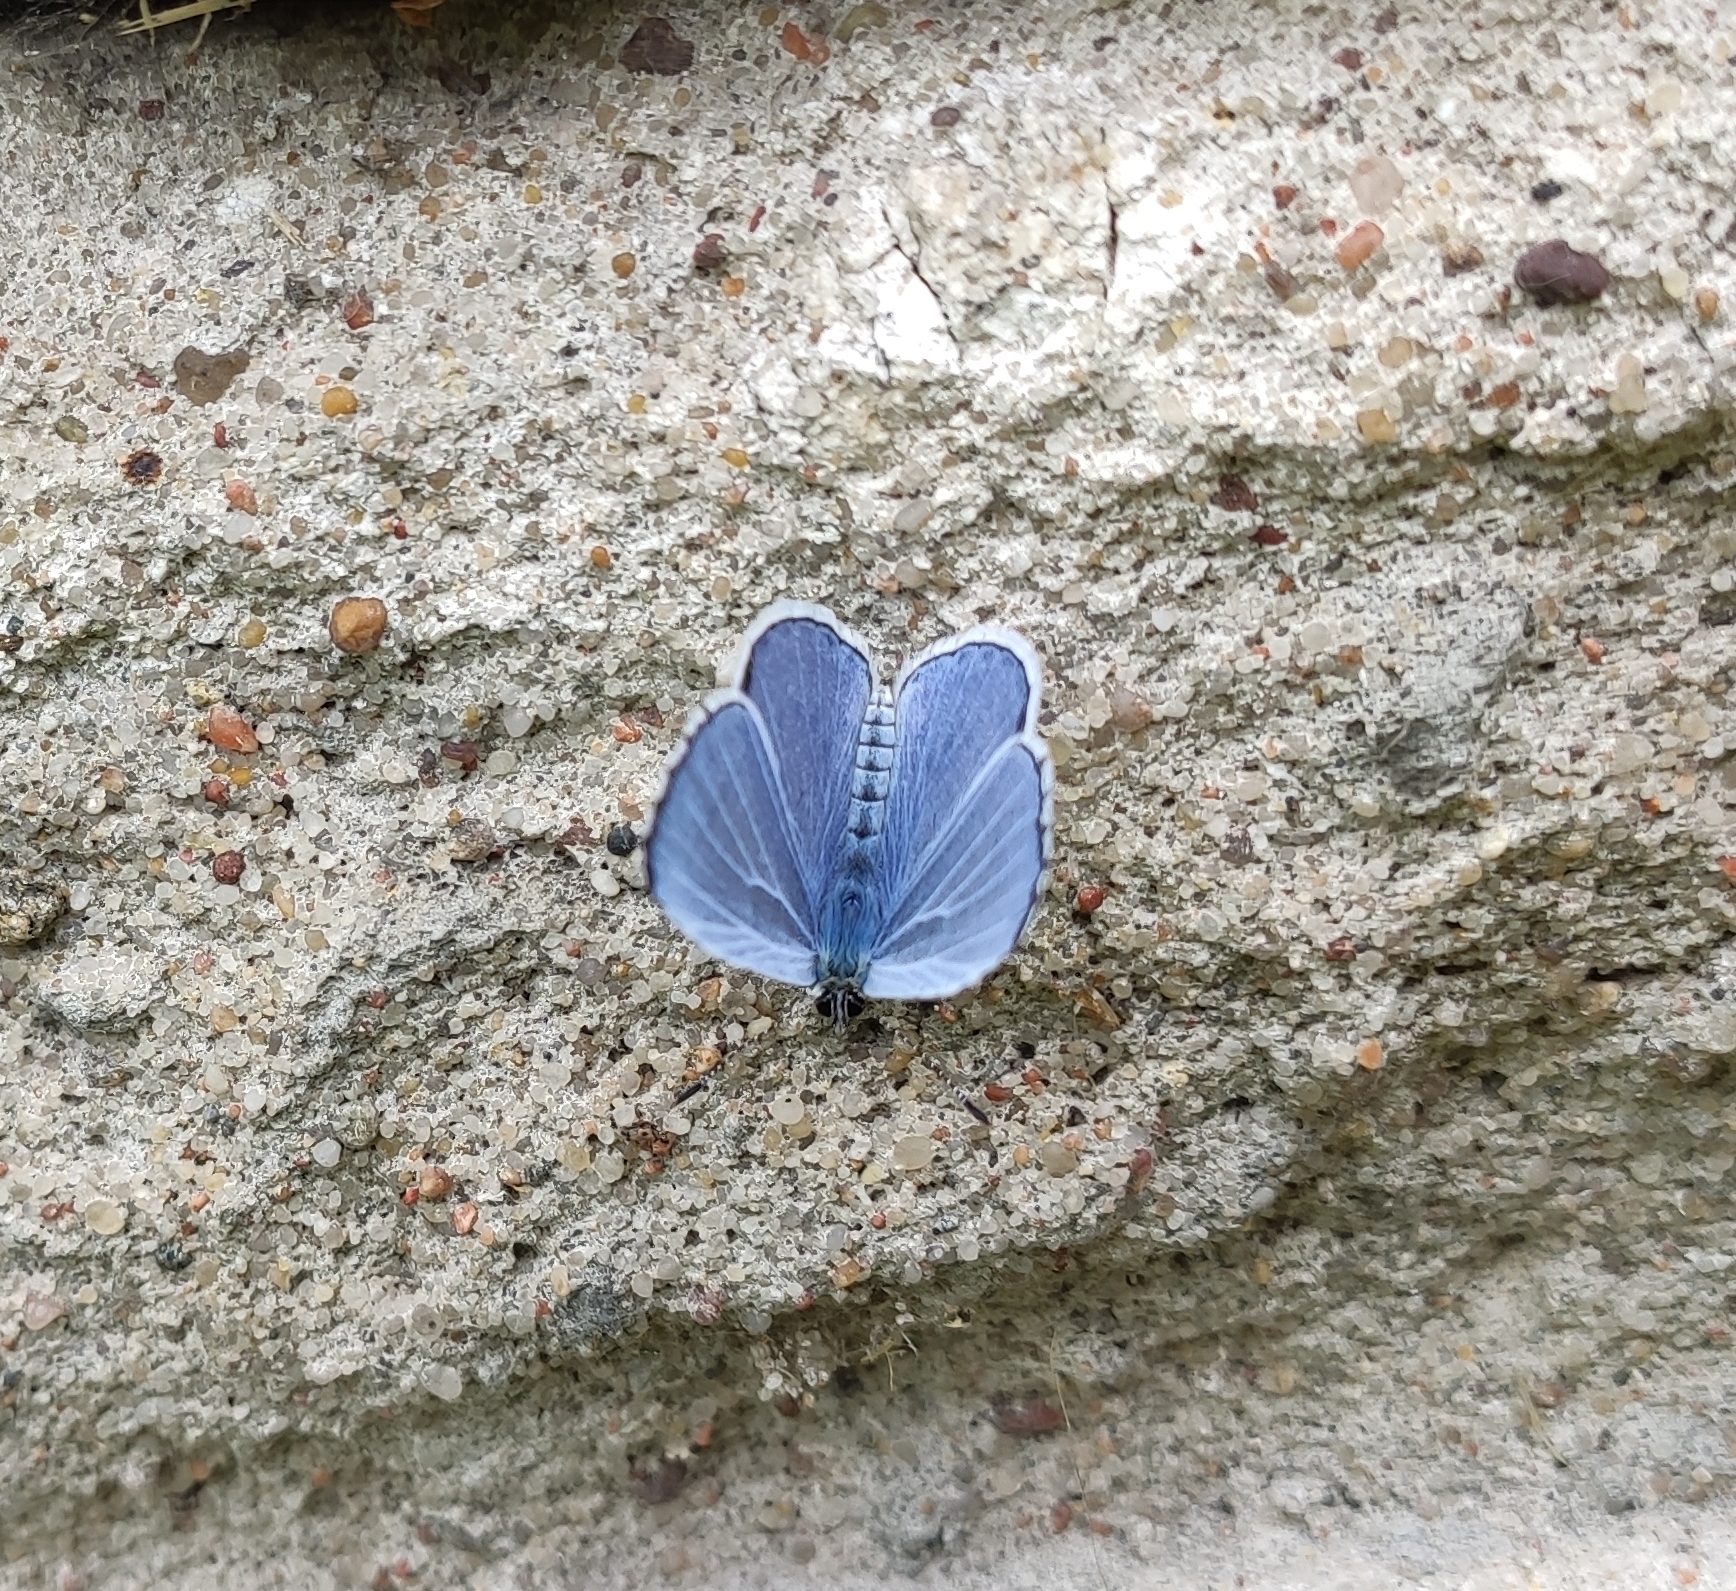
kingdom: Animalia
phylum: Arthropoda
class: Insecta
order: Lepidoptera
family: Lycaenidae
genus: Celastrina
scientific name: Celastrina argiolus
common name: Holly blue
